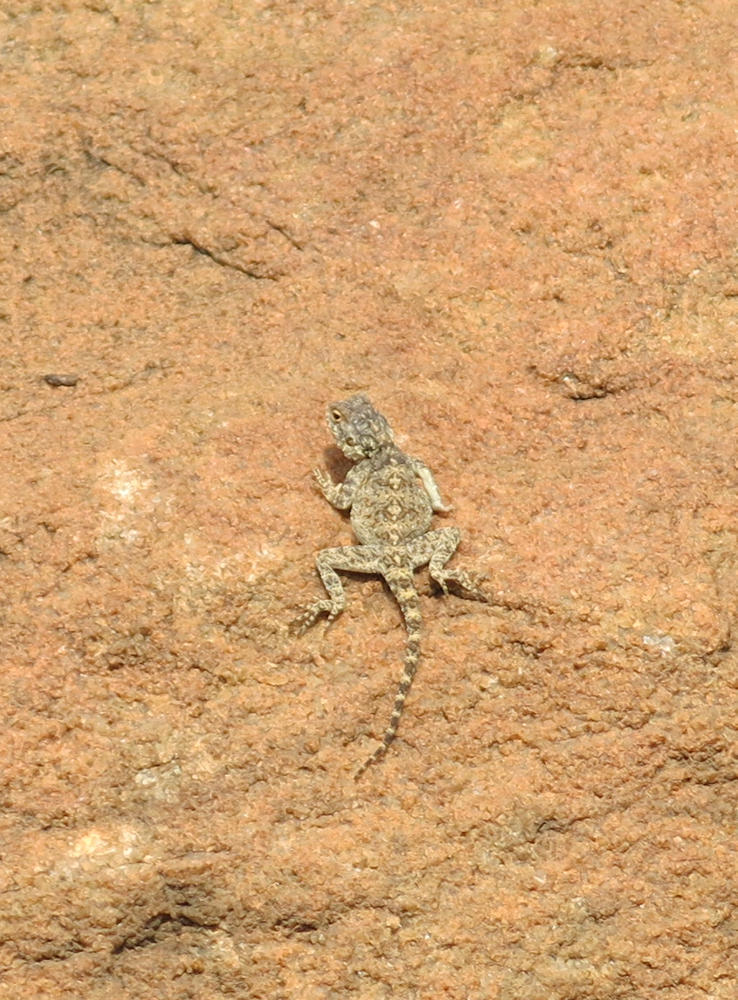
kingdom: Animalia
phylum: Chordata
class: Squamata
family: Agamidae
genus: Agama
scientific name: Agama atra
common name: Southern african rock agama
